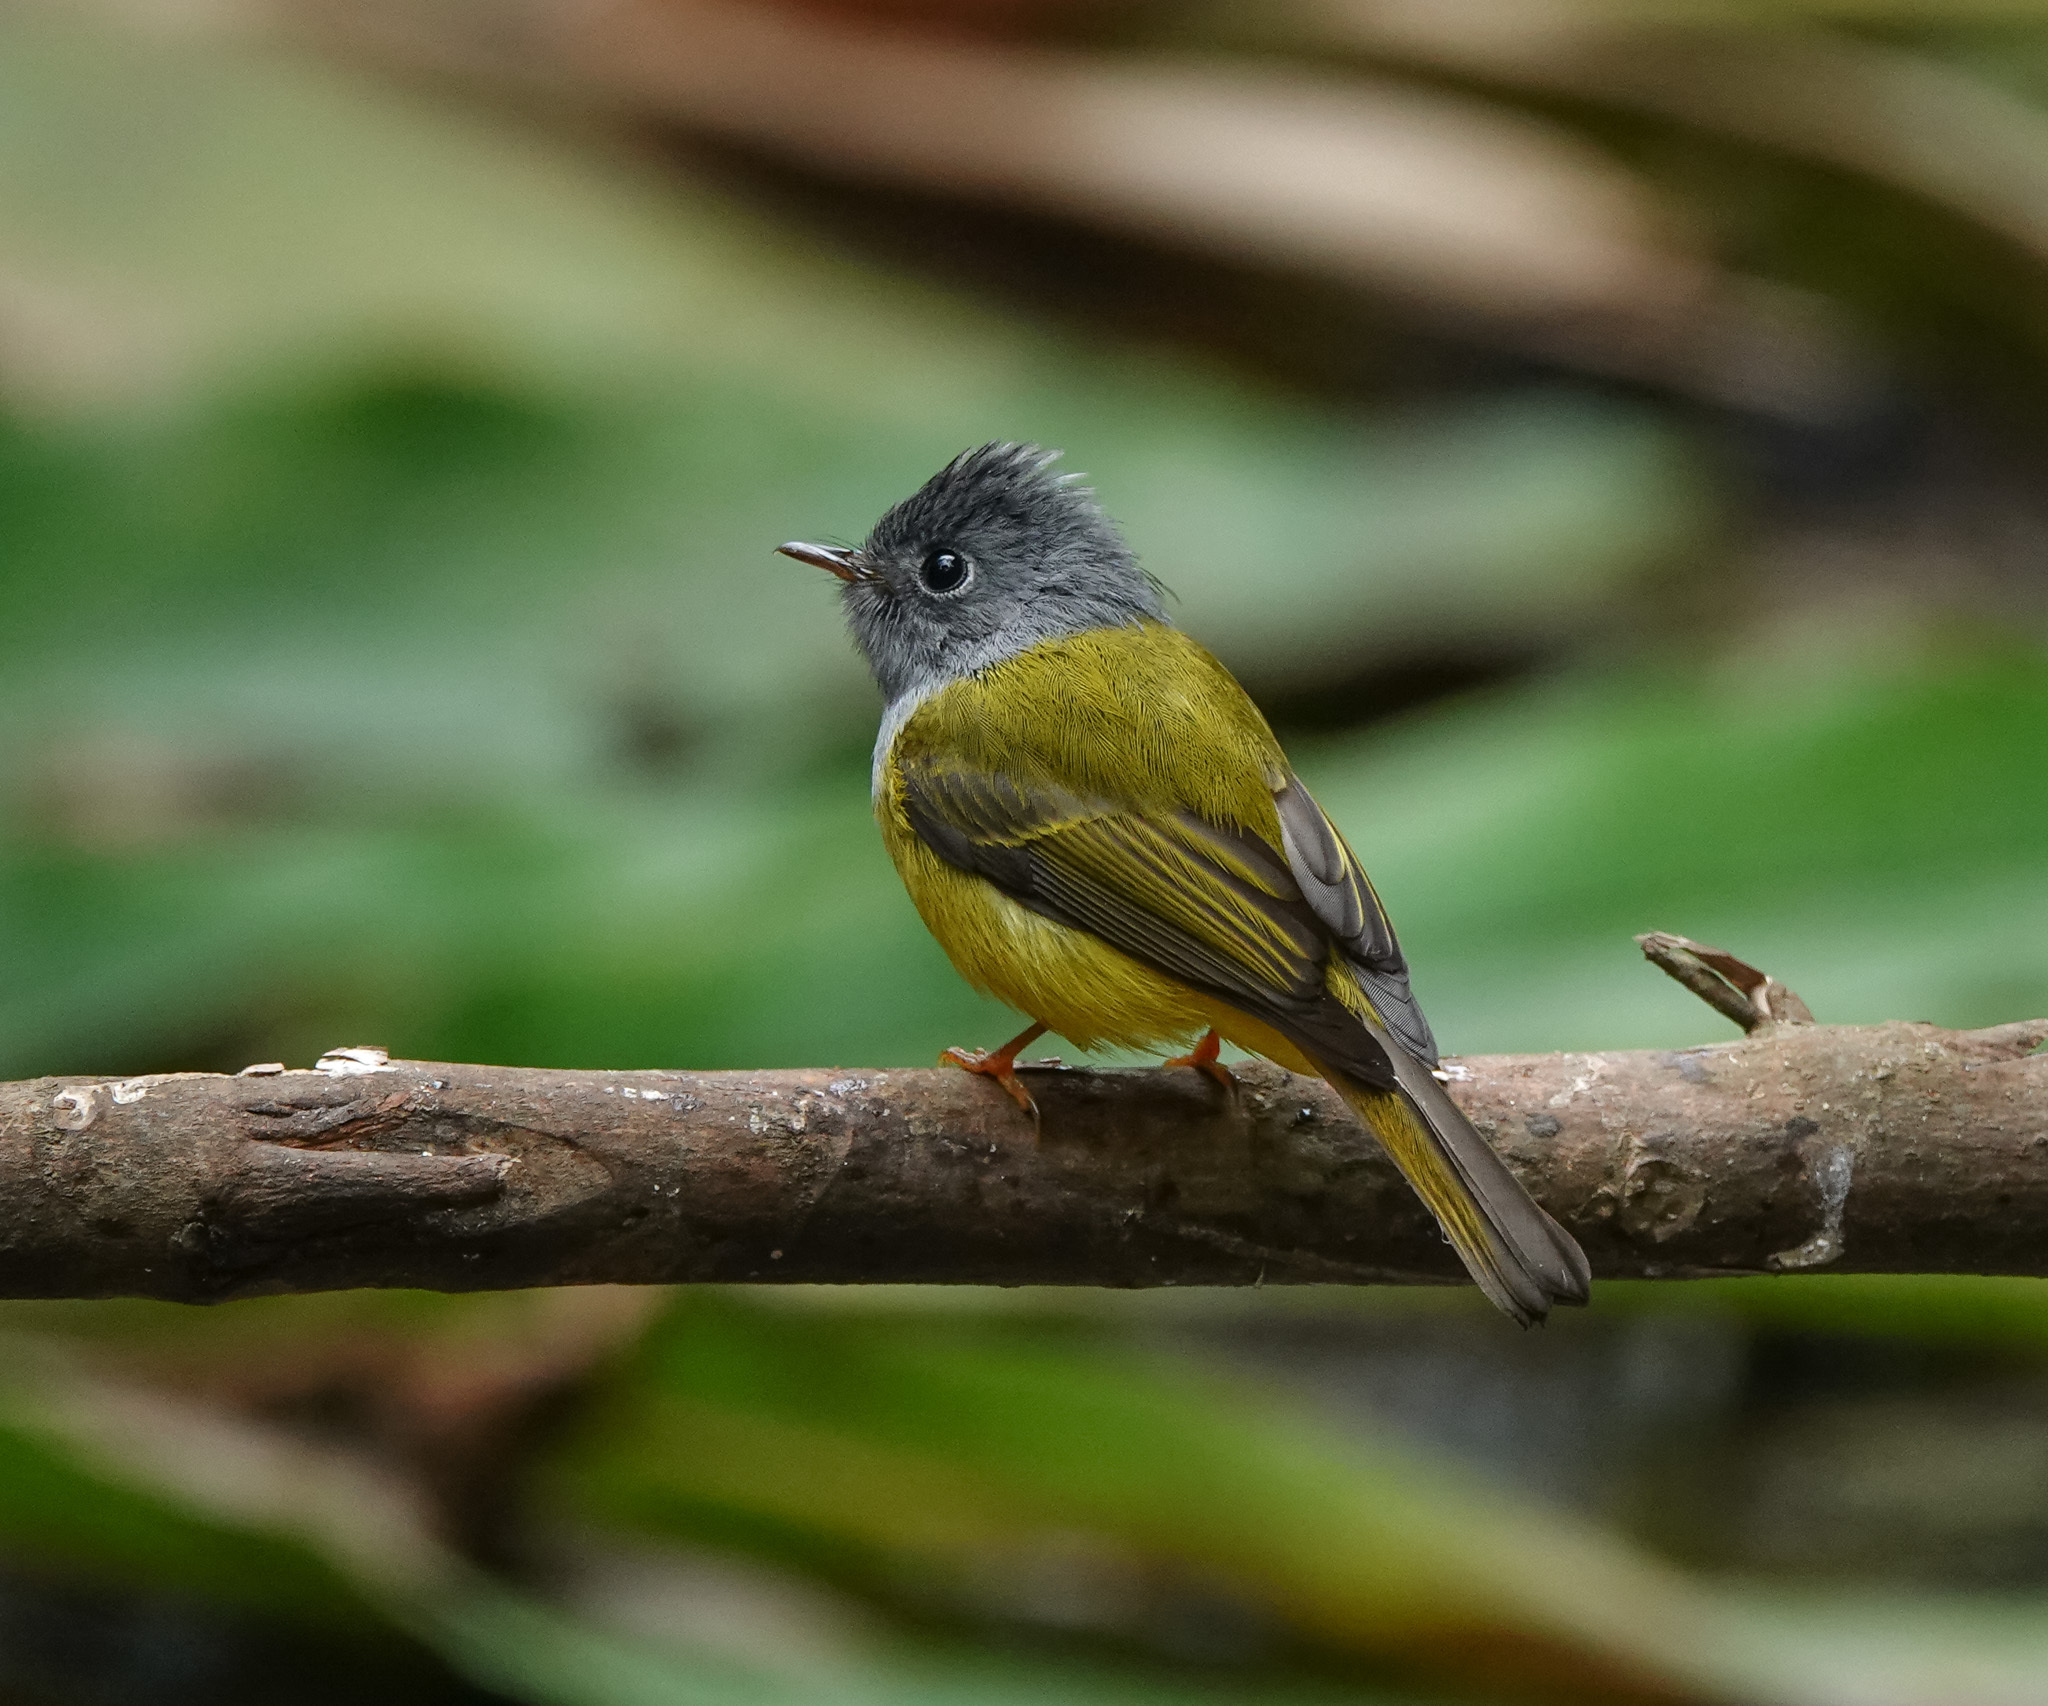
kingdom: Animalia
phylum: Chordata
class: Aves
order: Passeriformes
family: Stenostiridae
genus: Culicicapa
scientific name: Culicicapa ceylonensis
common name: Grey-headed canary-flycatcher
